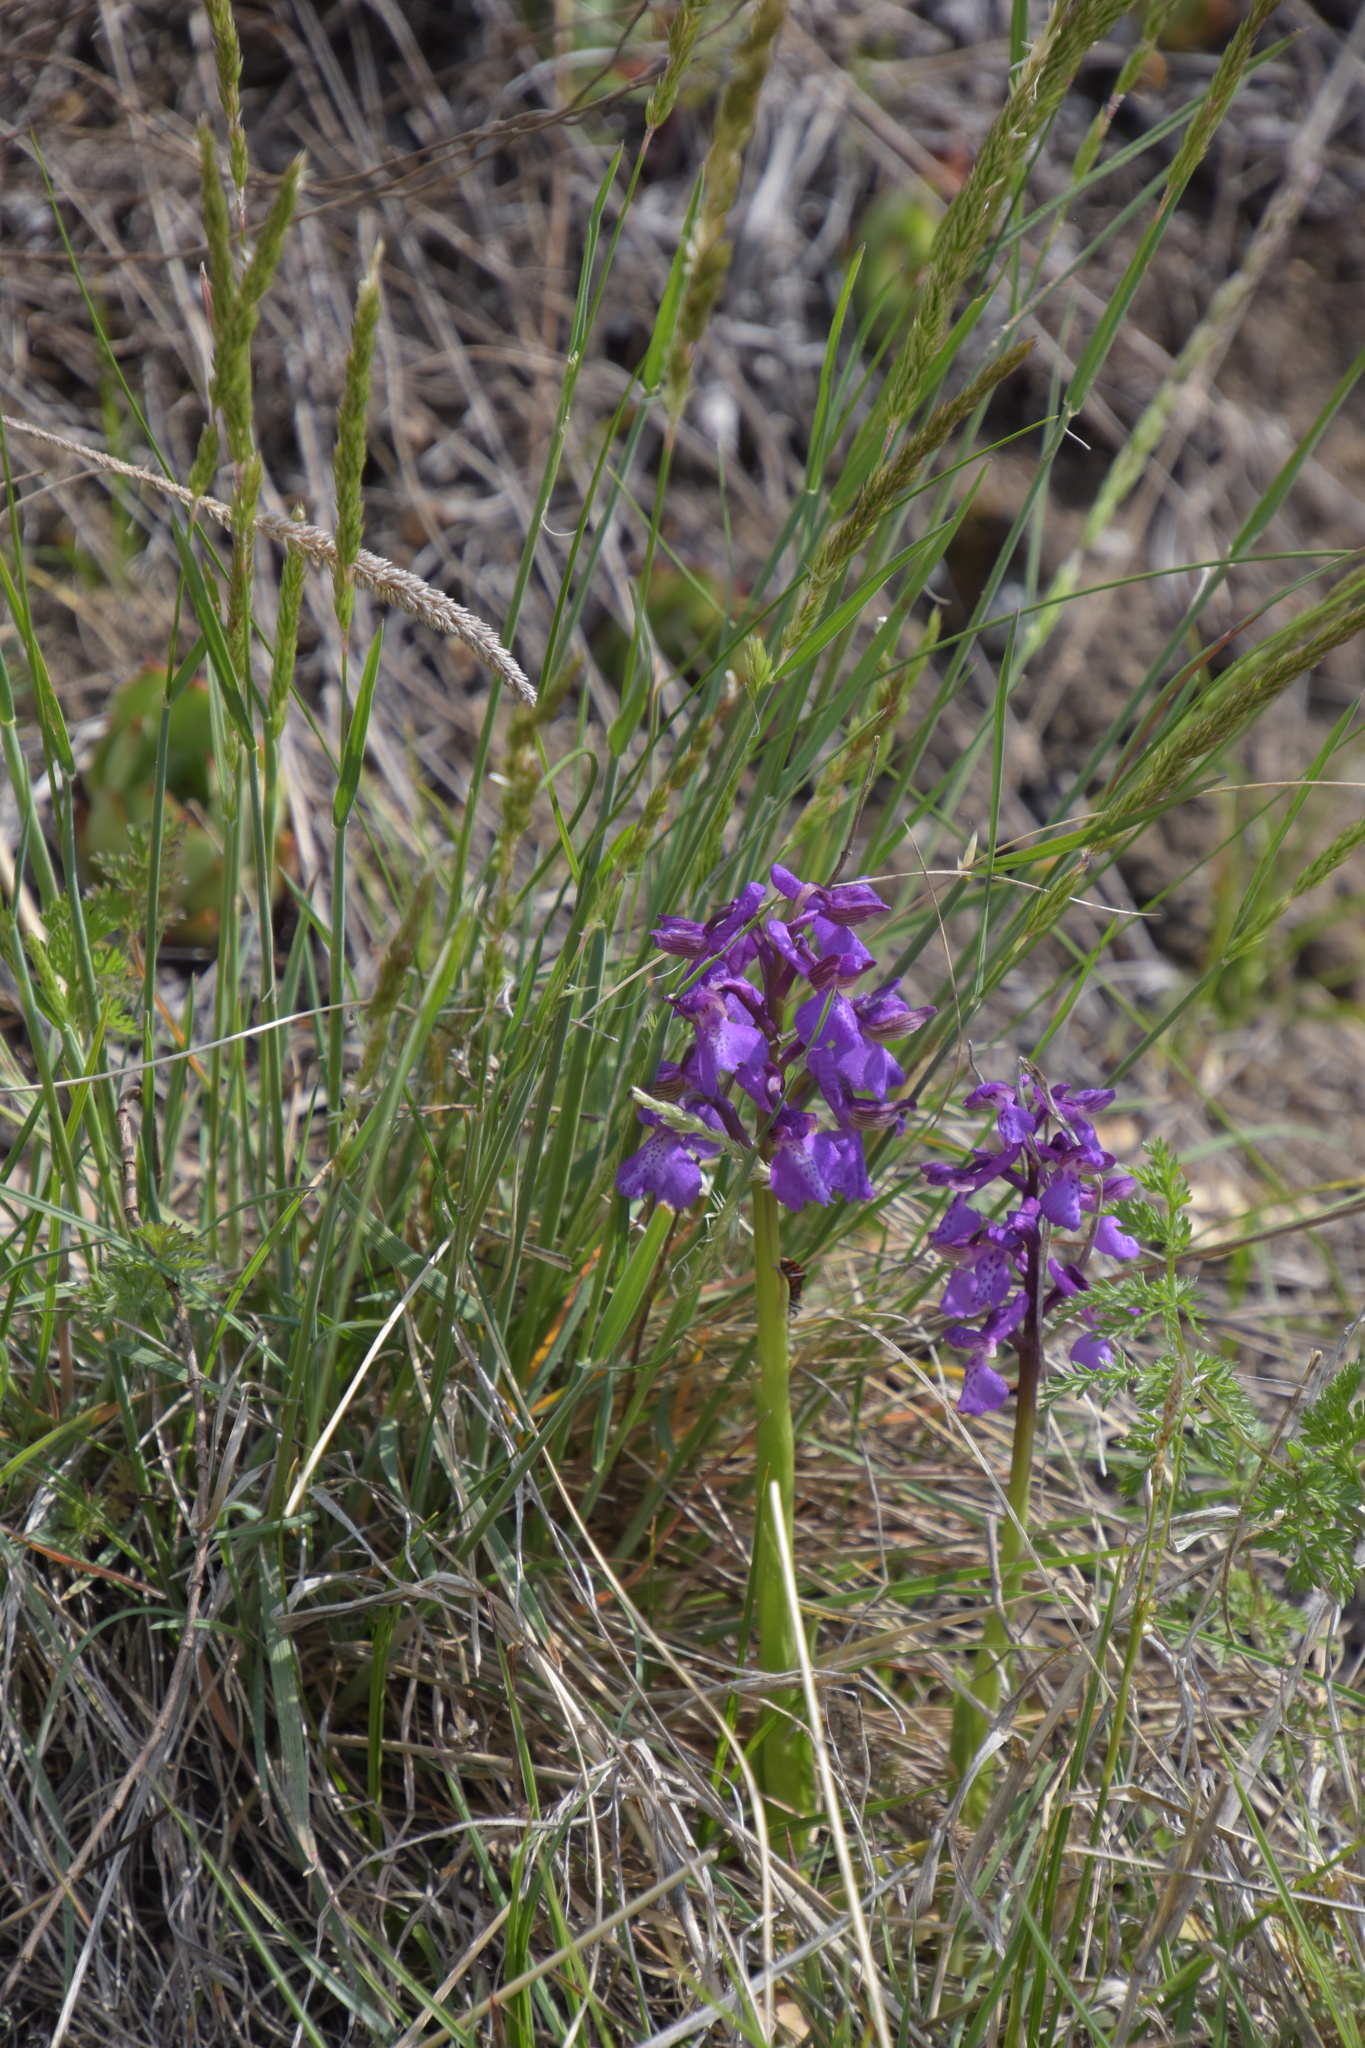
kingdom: Plantae
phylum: Tracheophyta
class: Liliopsida
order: Asparagales
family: Orchidaceae
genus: Anacamptis
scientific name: Anacamptis morio
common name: Green-winged orchid
